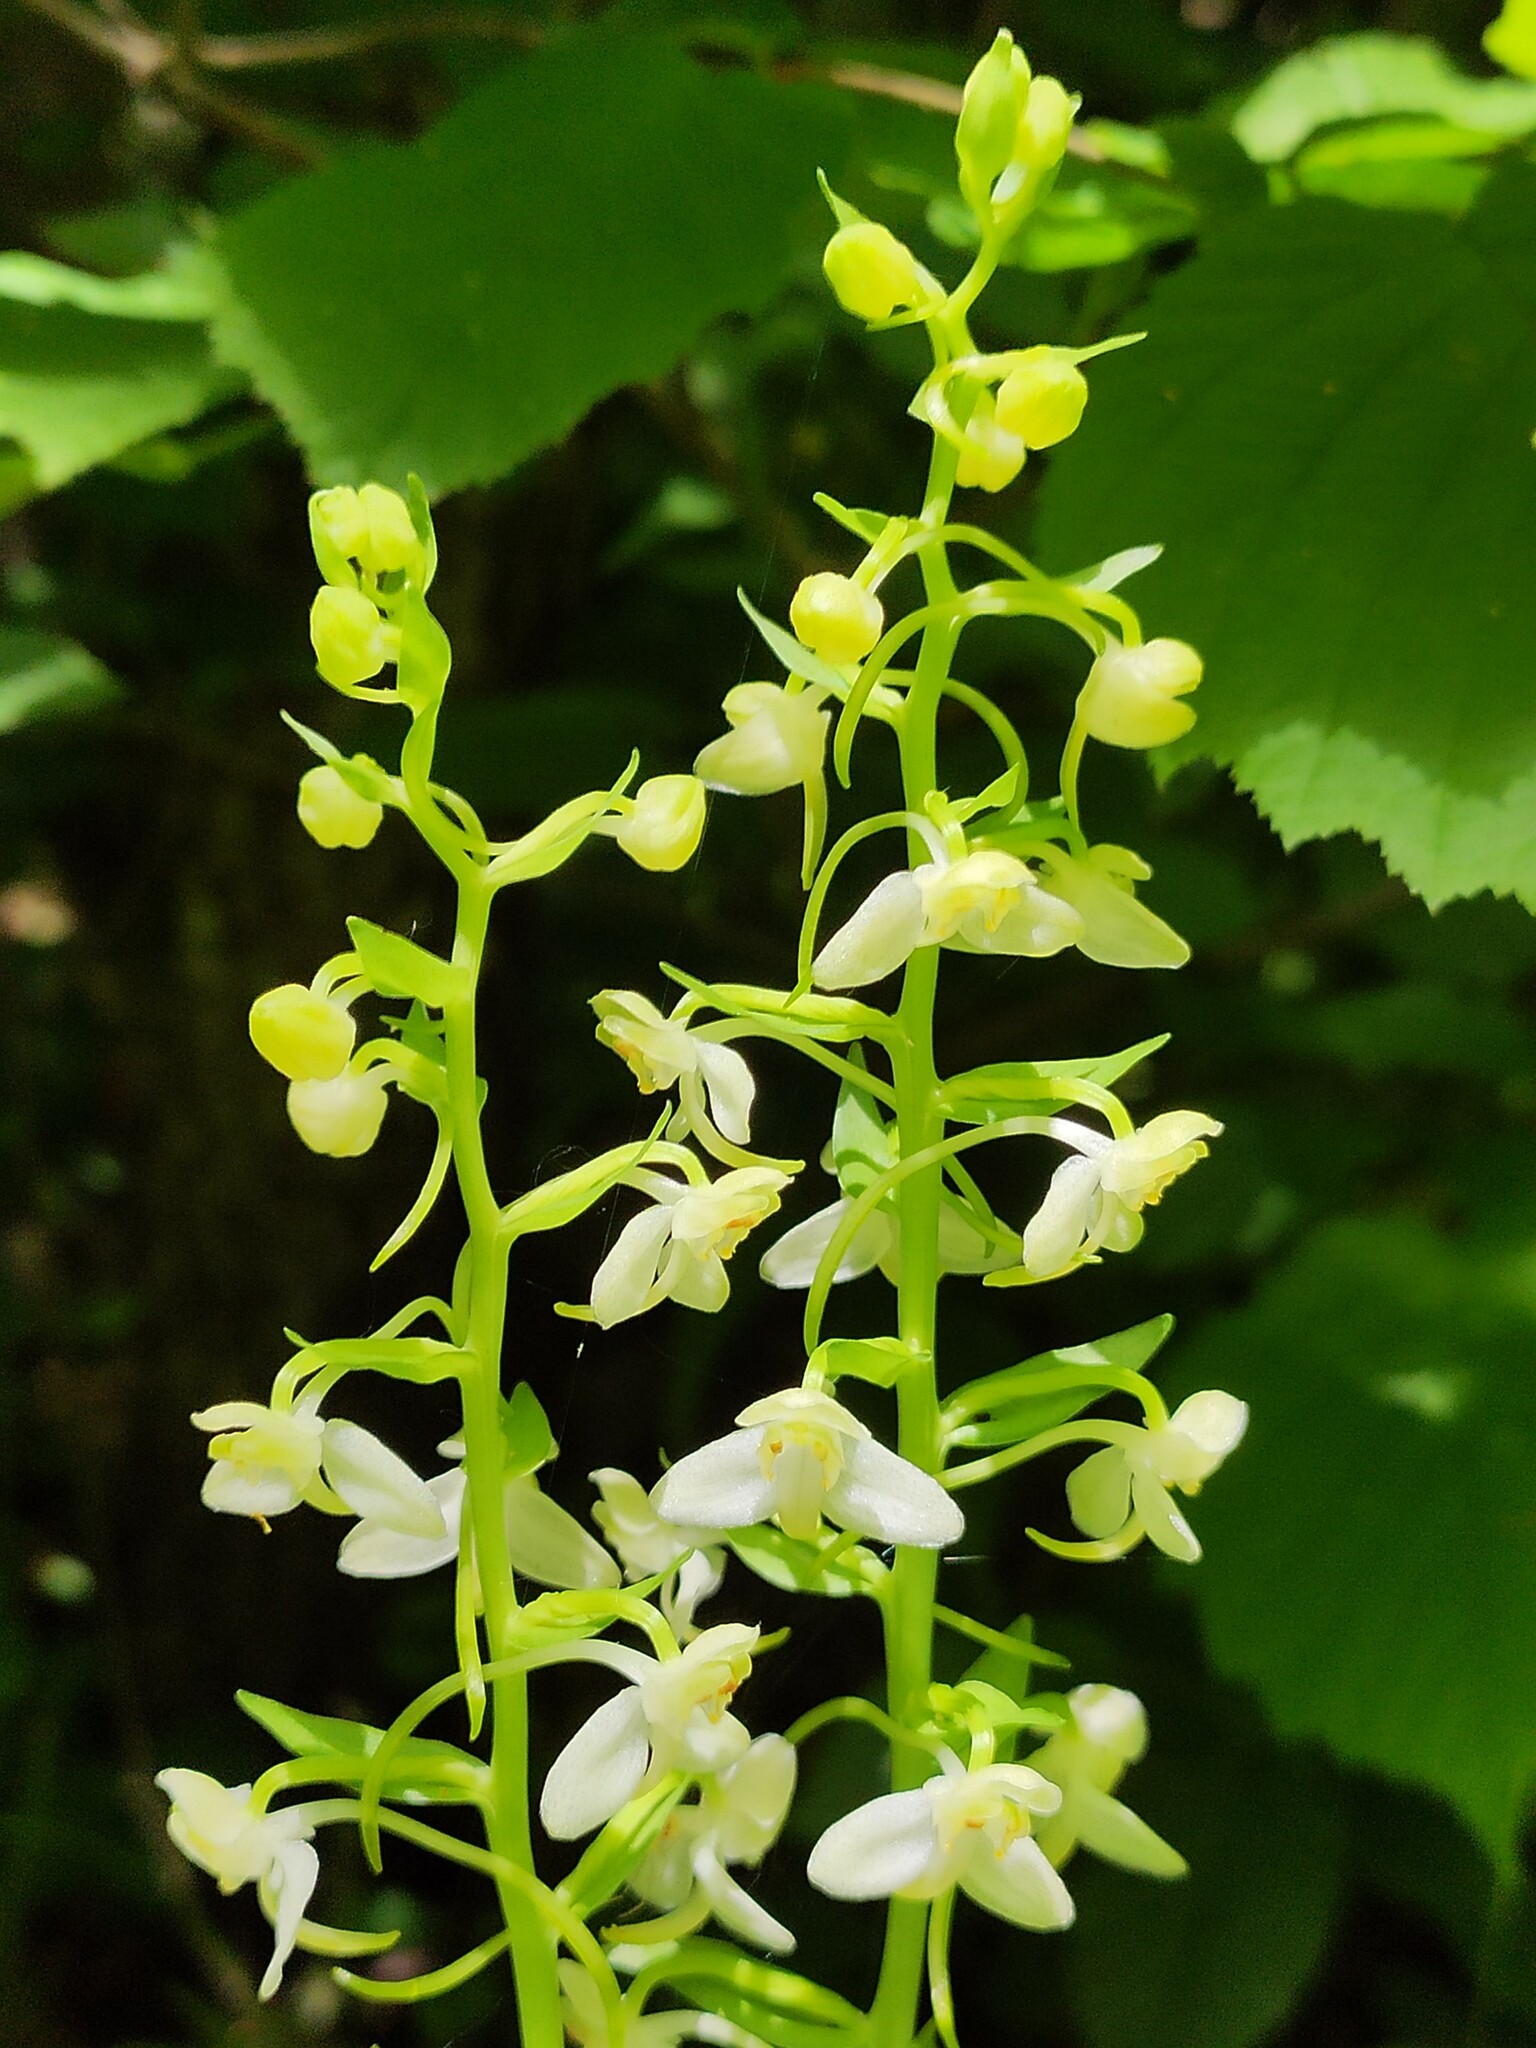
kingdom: Plantae
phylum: Tracheophyta
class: Liliopsida
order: Asparagales
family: Orchidaceae
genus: Platanthera
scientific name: Platanthera chlorantha
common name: Greater butterfly-orchid
